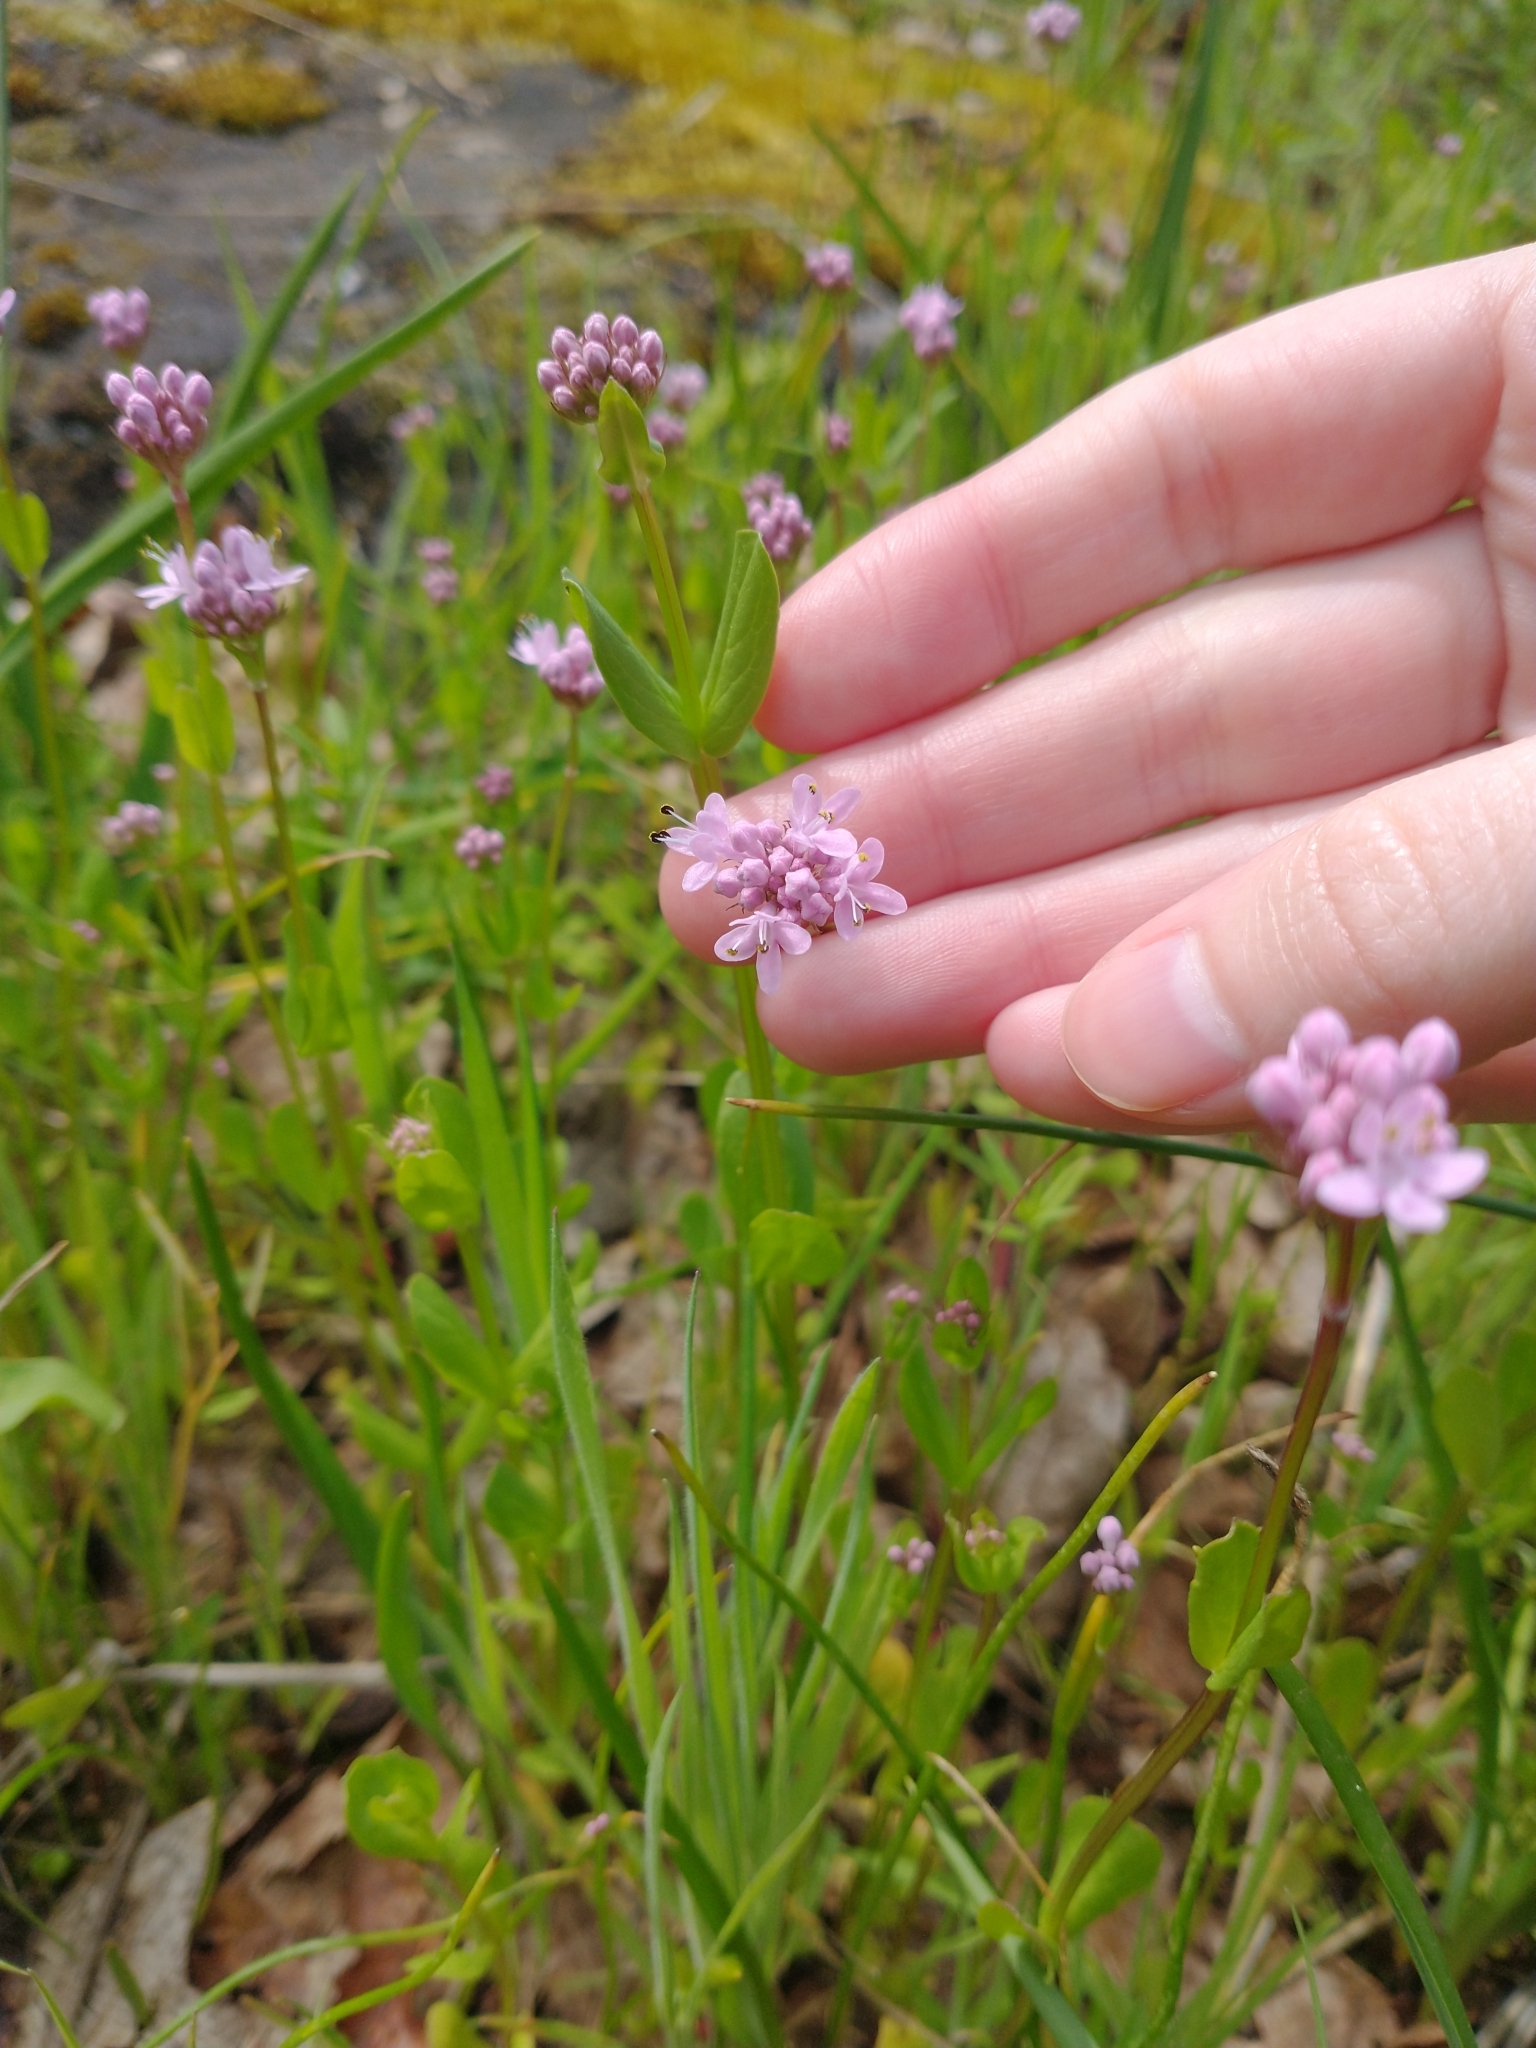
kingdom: Plantae
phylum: Tracheophyta
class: Magnoliopsida
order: Dipsacales
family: Caprifoliaceae
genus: Plectritis
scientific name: Plectritis congesta
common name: Pink plectritis
